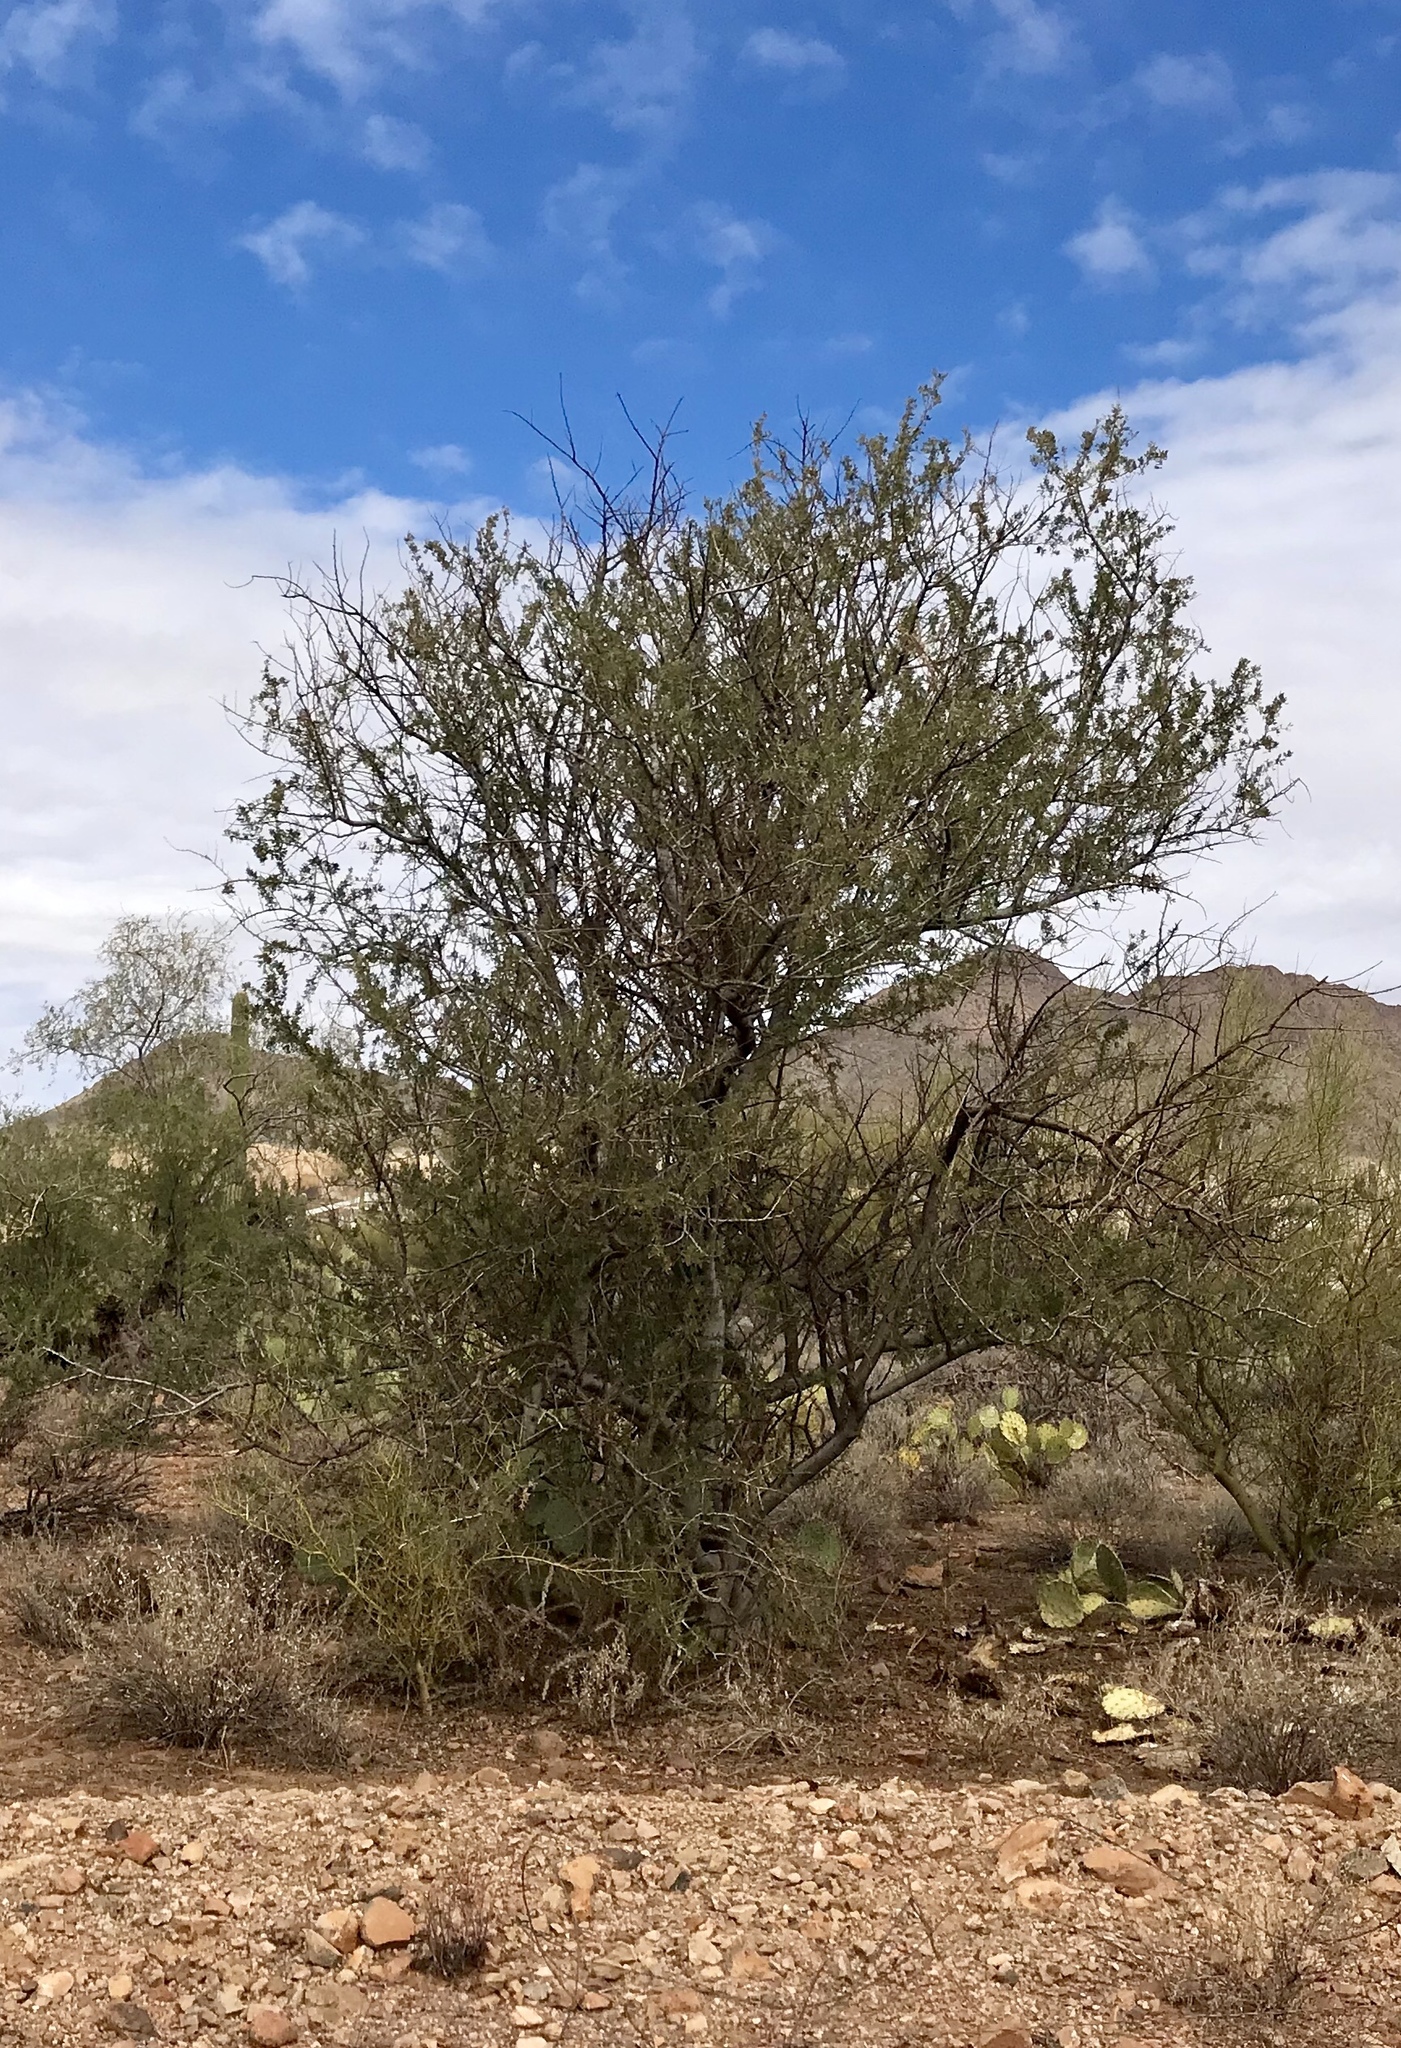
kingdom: Plantae
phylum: Tracheophyta
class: Magnoliopsida
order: Fabales
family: Fabaceae
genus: Olneya
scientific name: Olneya tesota
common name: Desert ironwood
